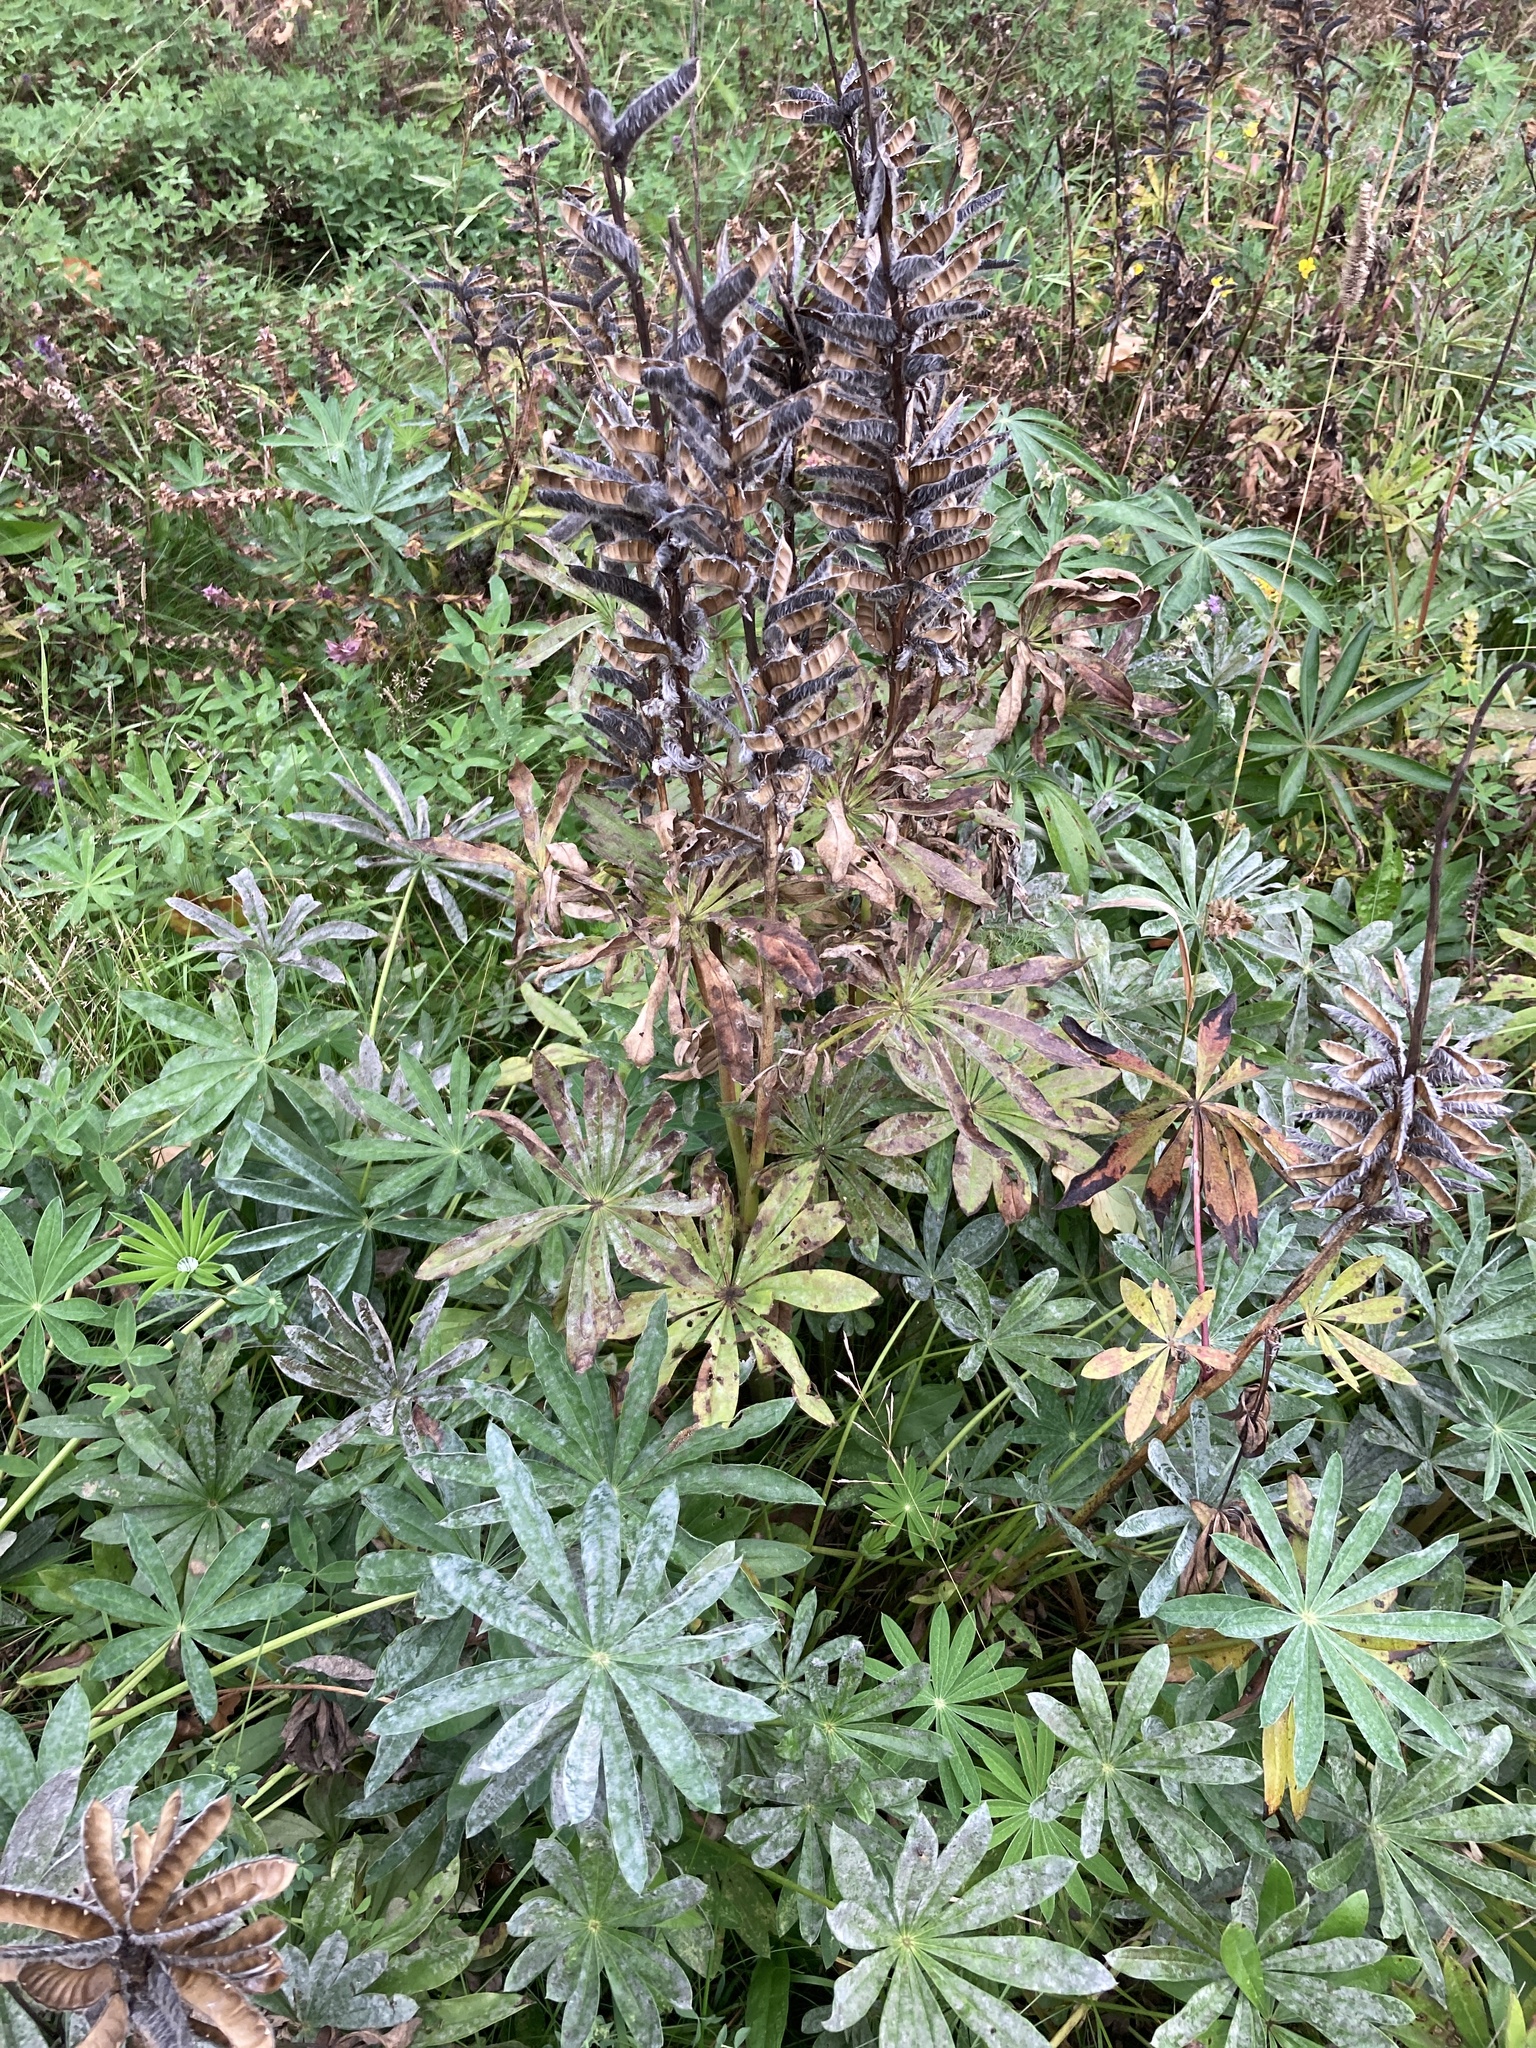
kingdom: Plantae
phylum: Tracheophyta
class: Magnoliopsida
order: Fabales
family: Fabaceae
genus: Lupinus
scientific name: Lupinus polyphyllus
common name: Garden lupin
